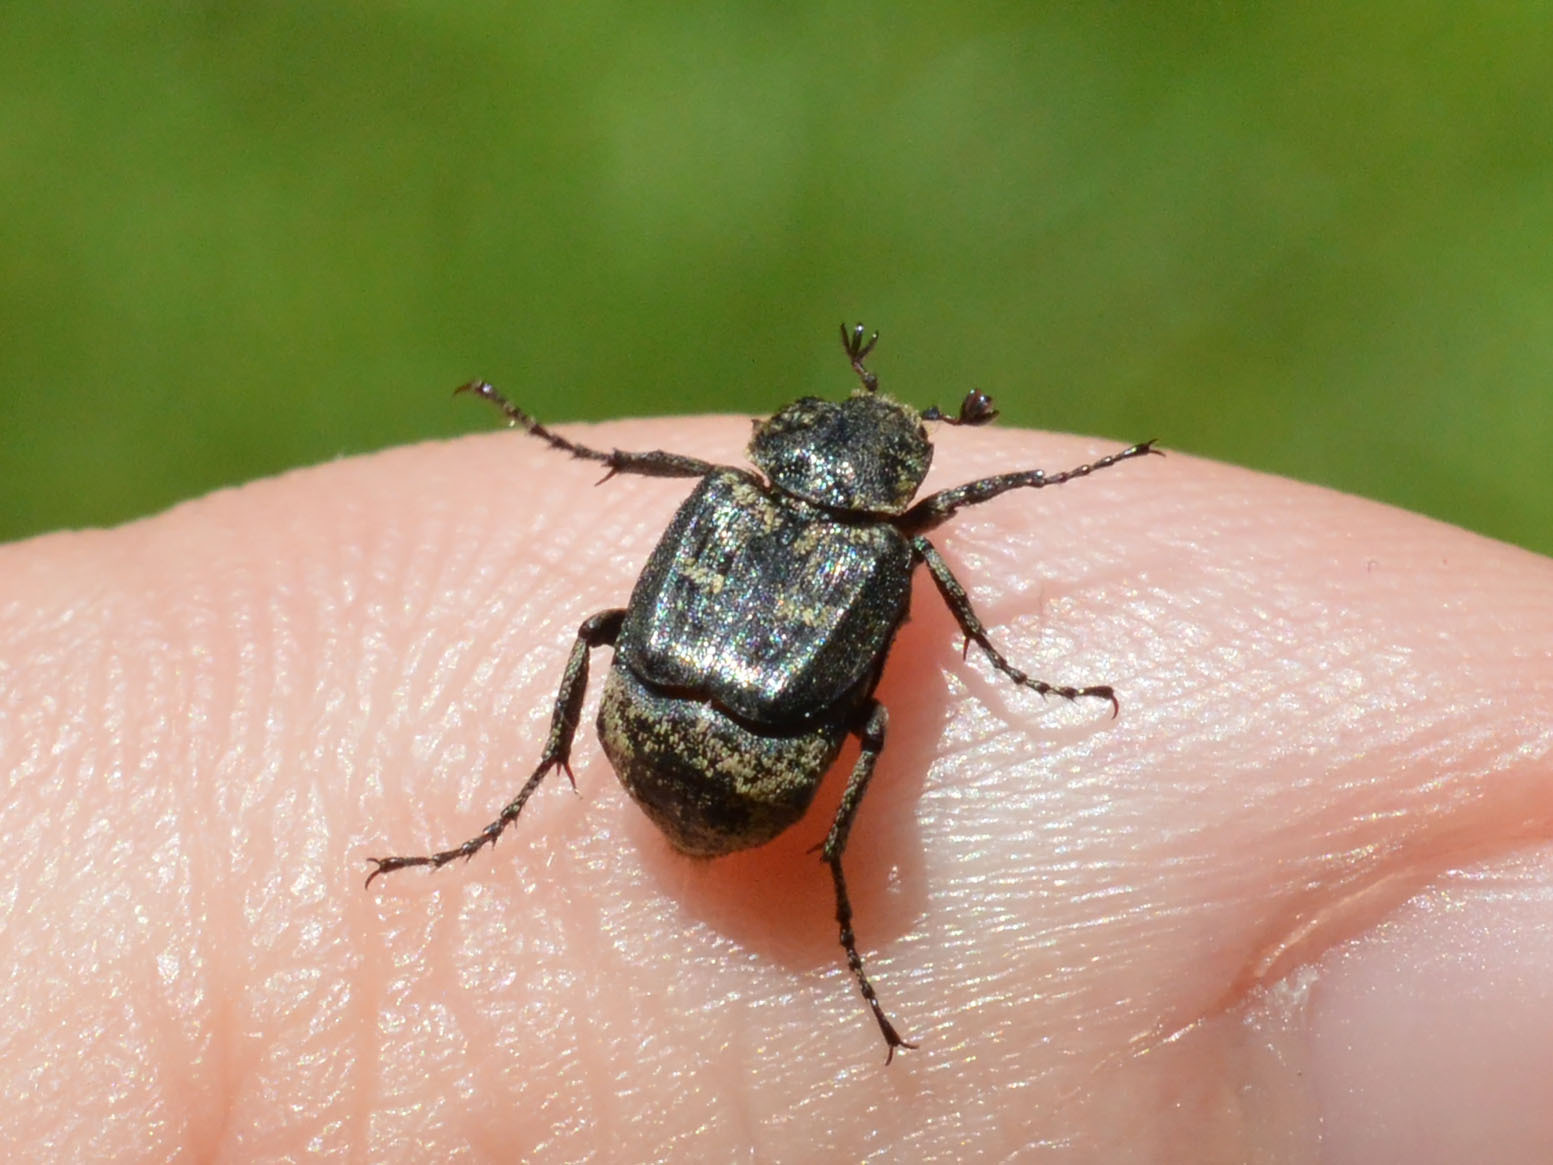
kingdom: Animalia
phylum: Arthropoda
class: Insecta
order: Coleoptera
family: Scarabaeidae
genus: Valgus
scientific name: Valgus hemipterus
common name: Bug flower chafer
